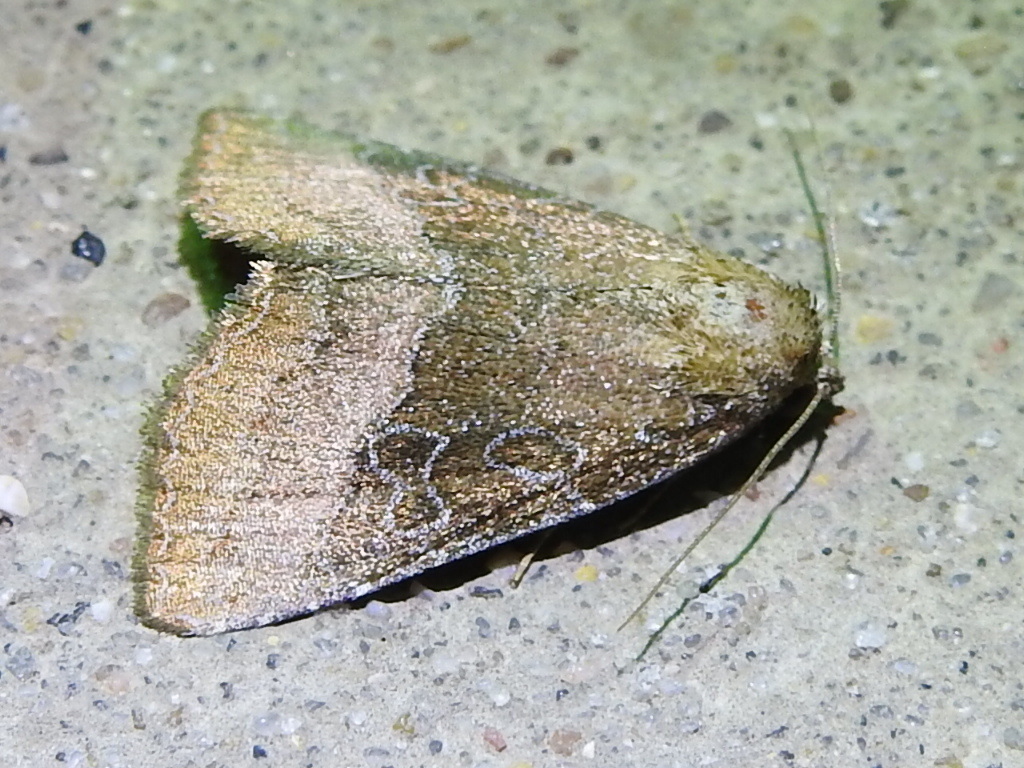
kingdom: Animalia
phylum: Arthropoda
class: Insecta
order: Lepidoptera
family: Noctuidae
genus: Ogdoconta
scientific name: Ogdoconta cinereola
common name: Common pinkband
